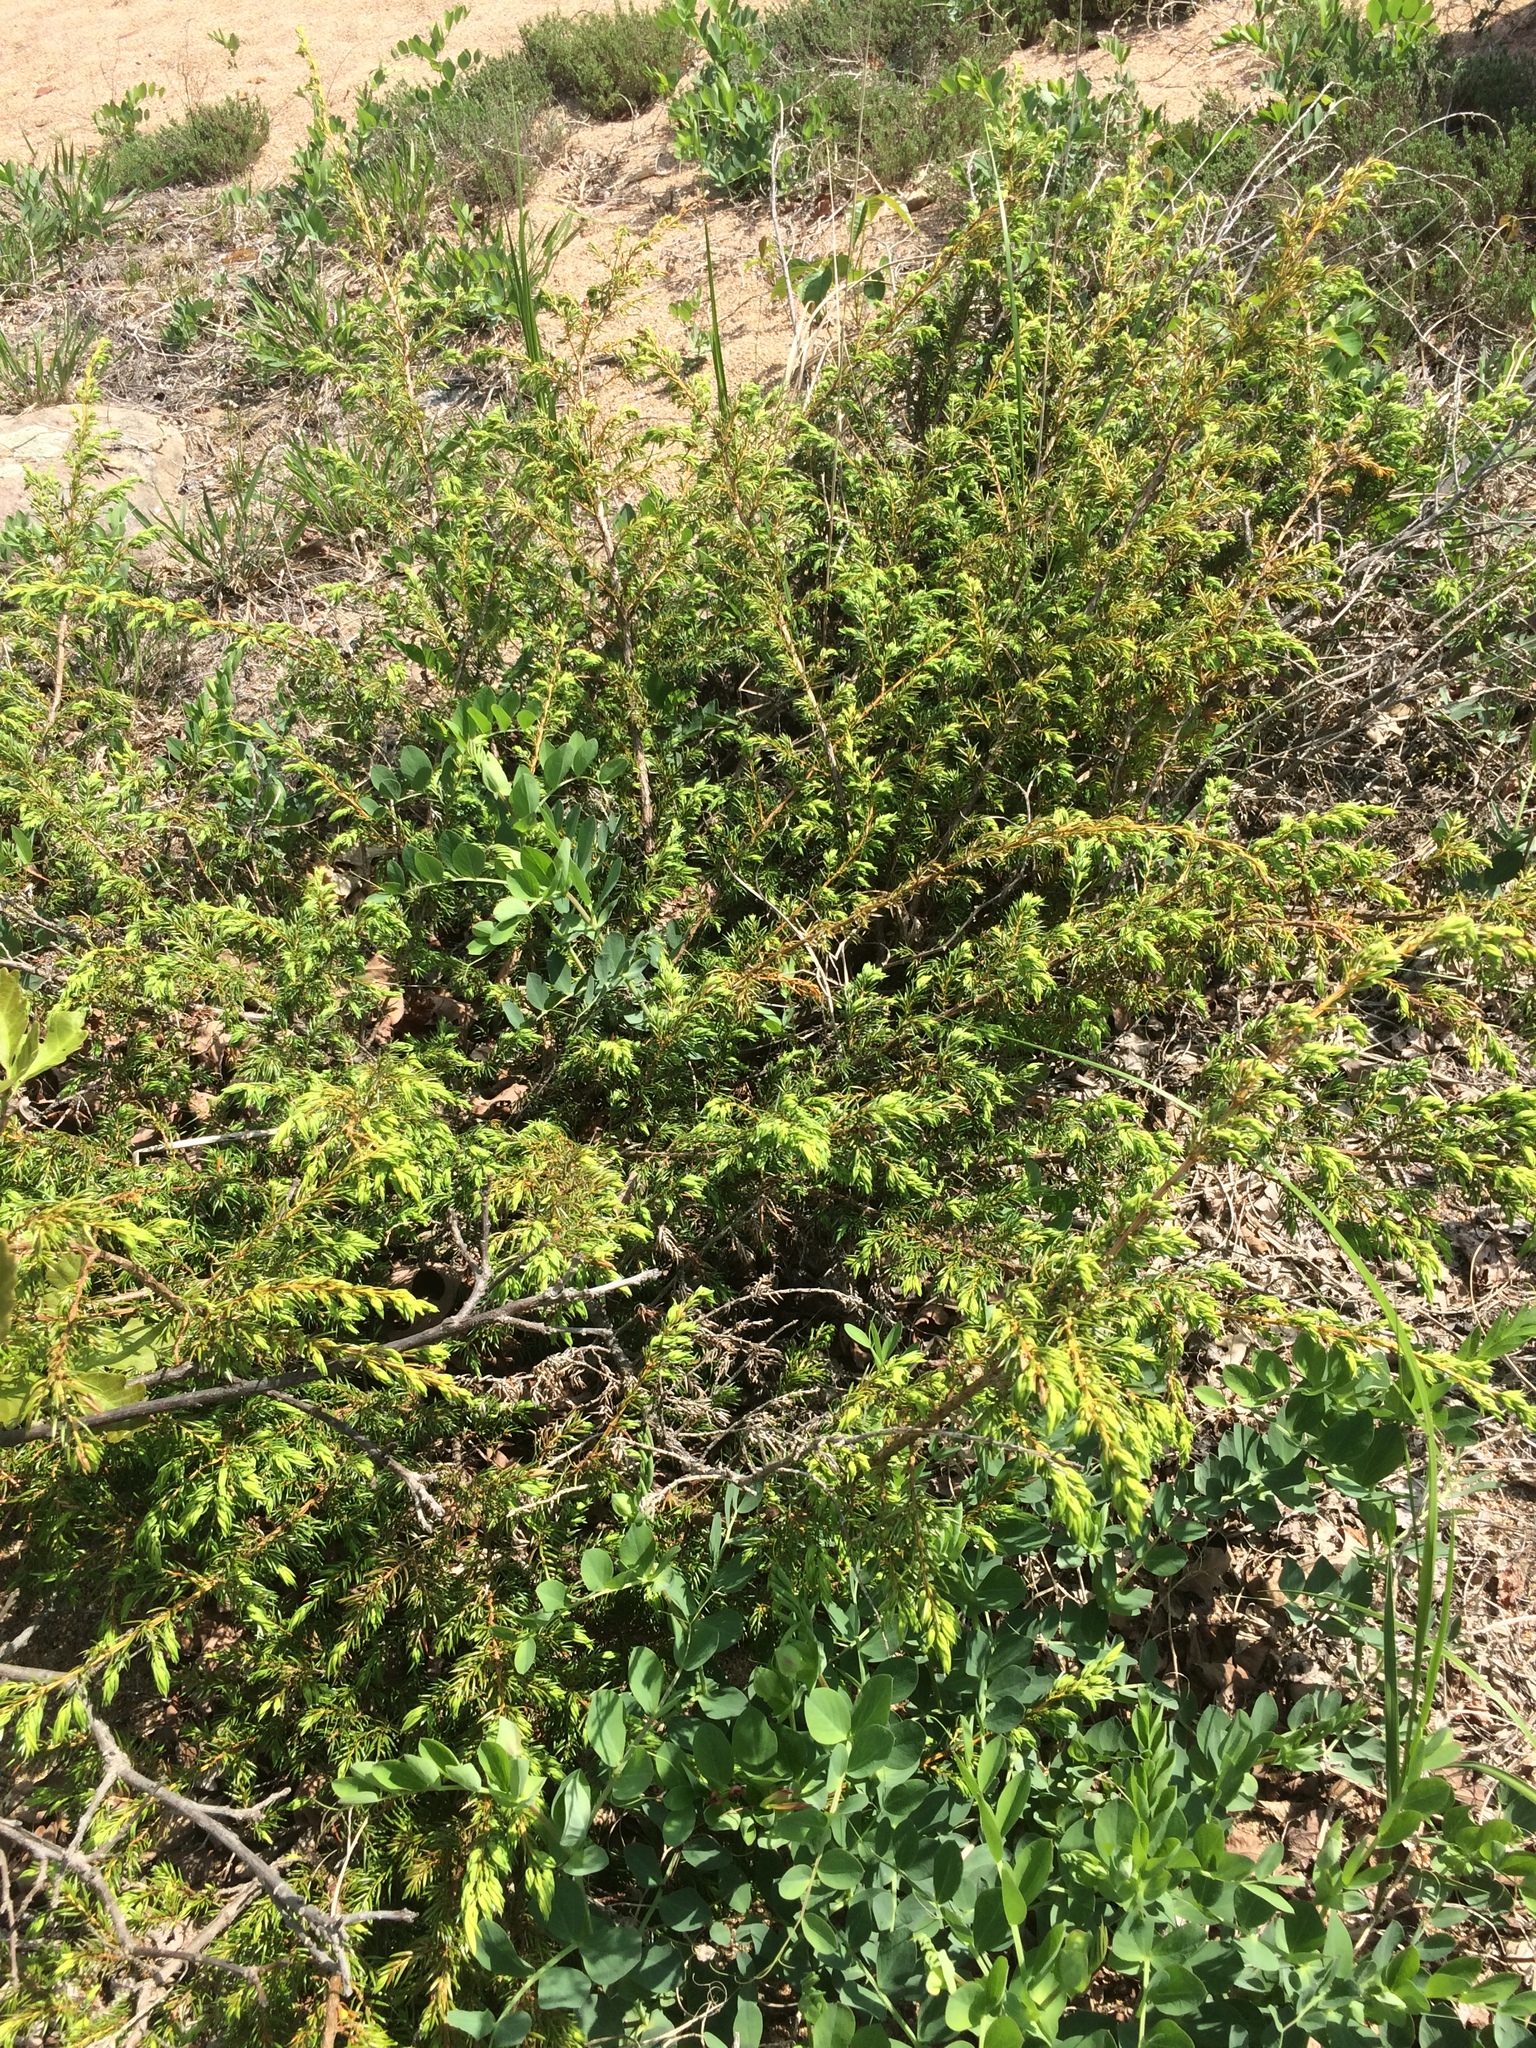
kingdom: Plantae
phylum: Tracheophyta
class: Pinopsida
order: Pinales
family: Cupressaceae
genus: Juniperus
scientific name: Juniperus communis
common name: Common juniper
